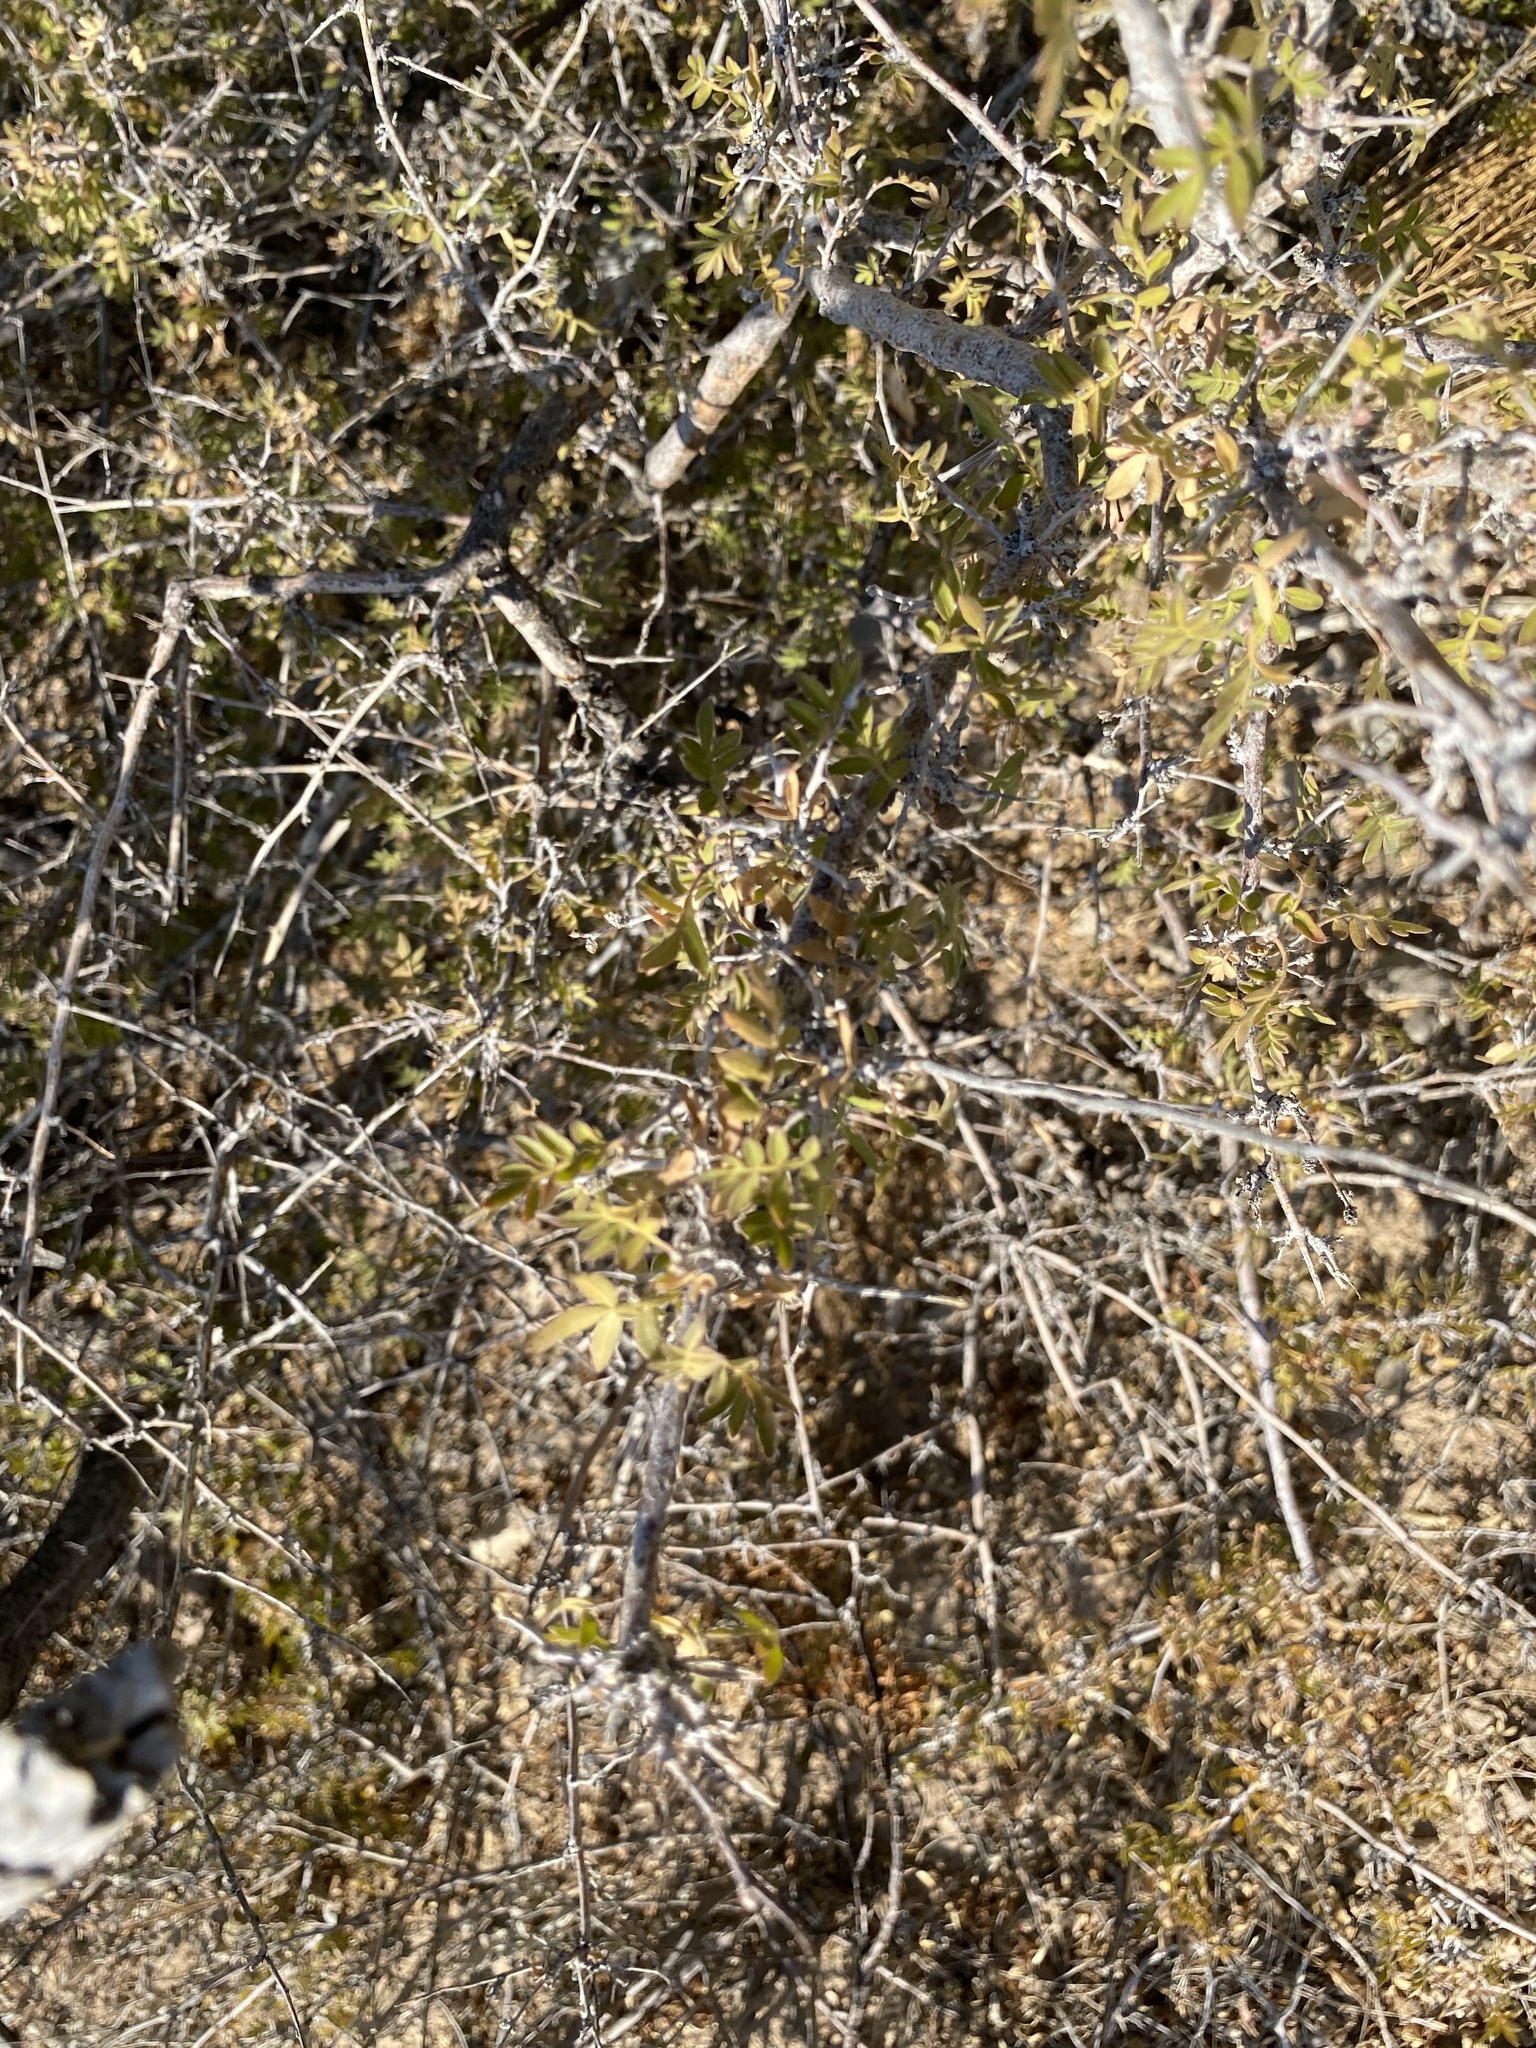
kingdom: Plantae
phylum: Tracheophyta
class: Magnoliopsida
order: Sapindales
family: Anacardiaceae
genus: Rhus
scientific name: Rhus microphylla
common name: Desert sumac
